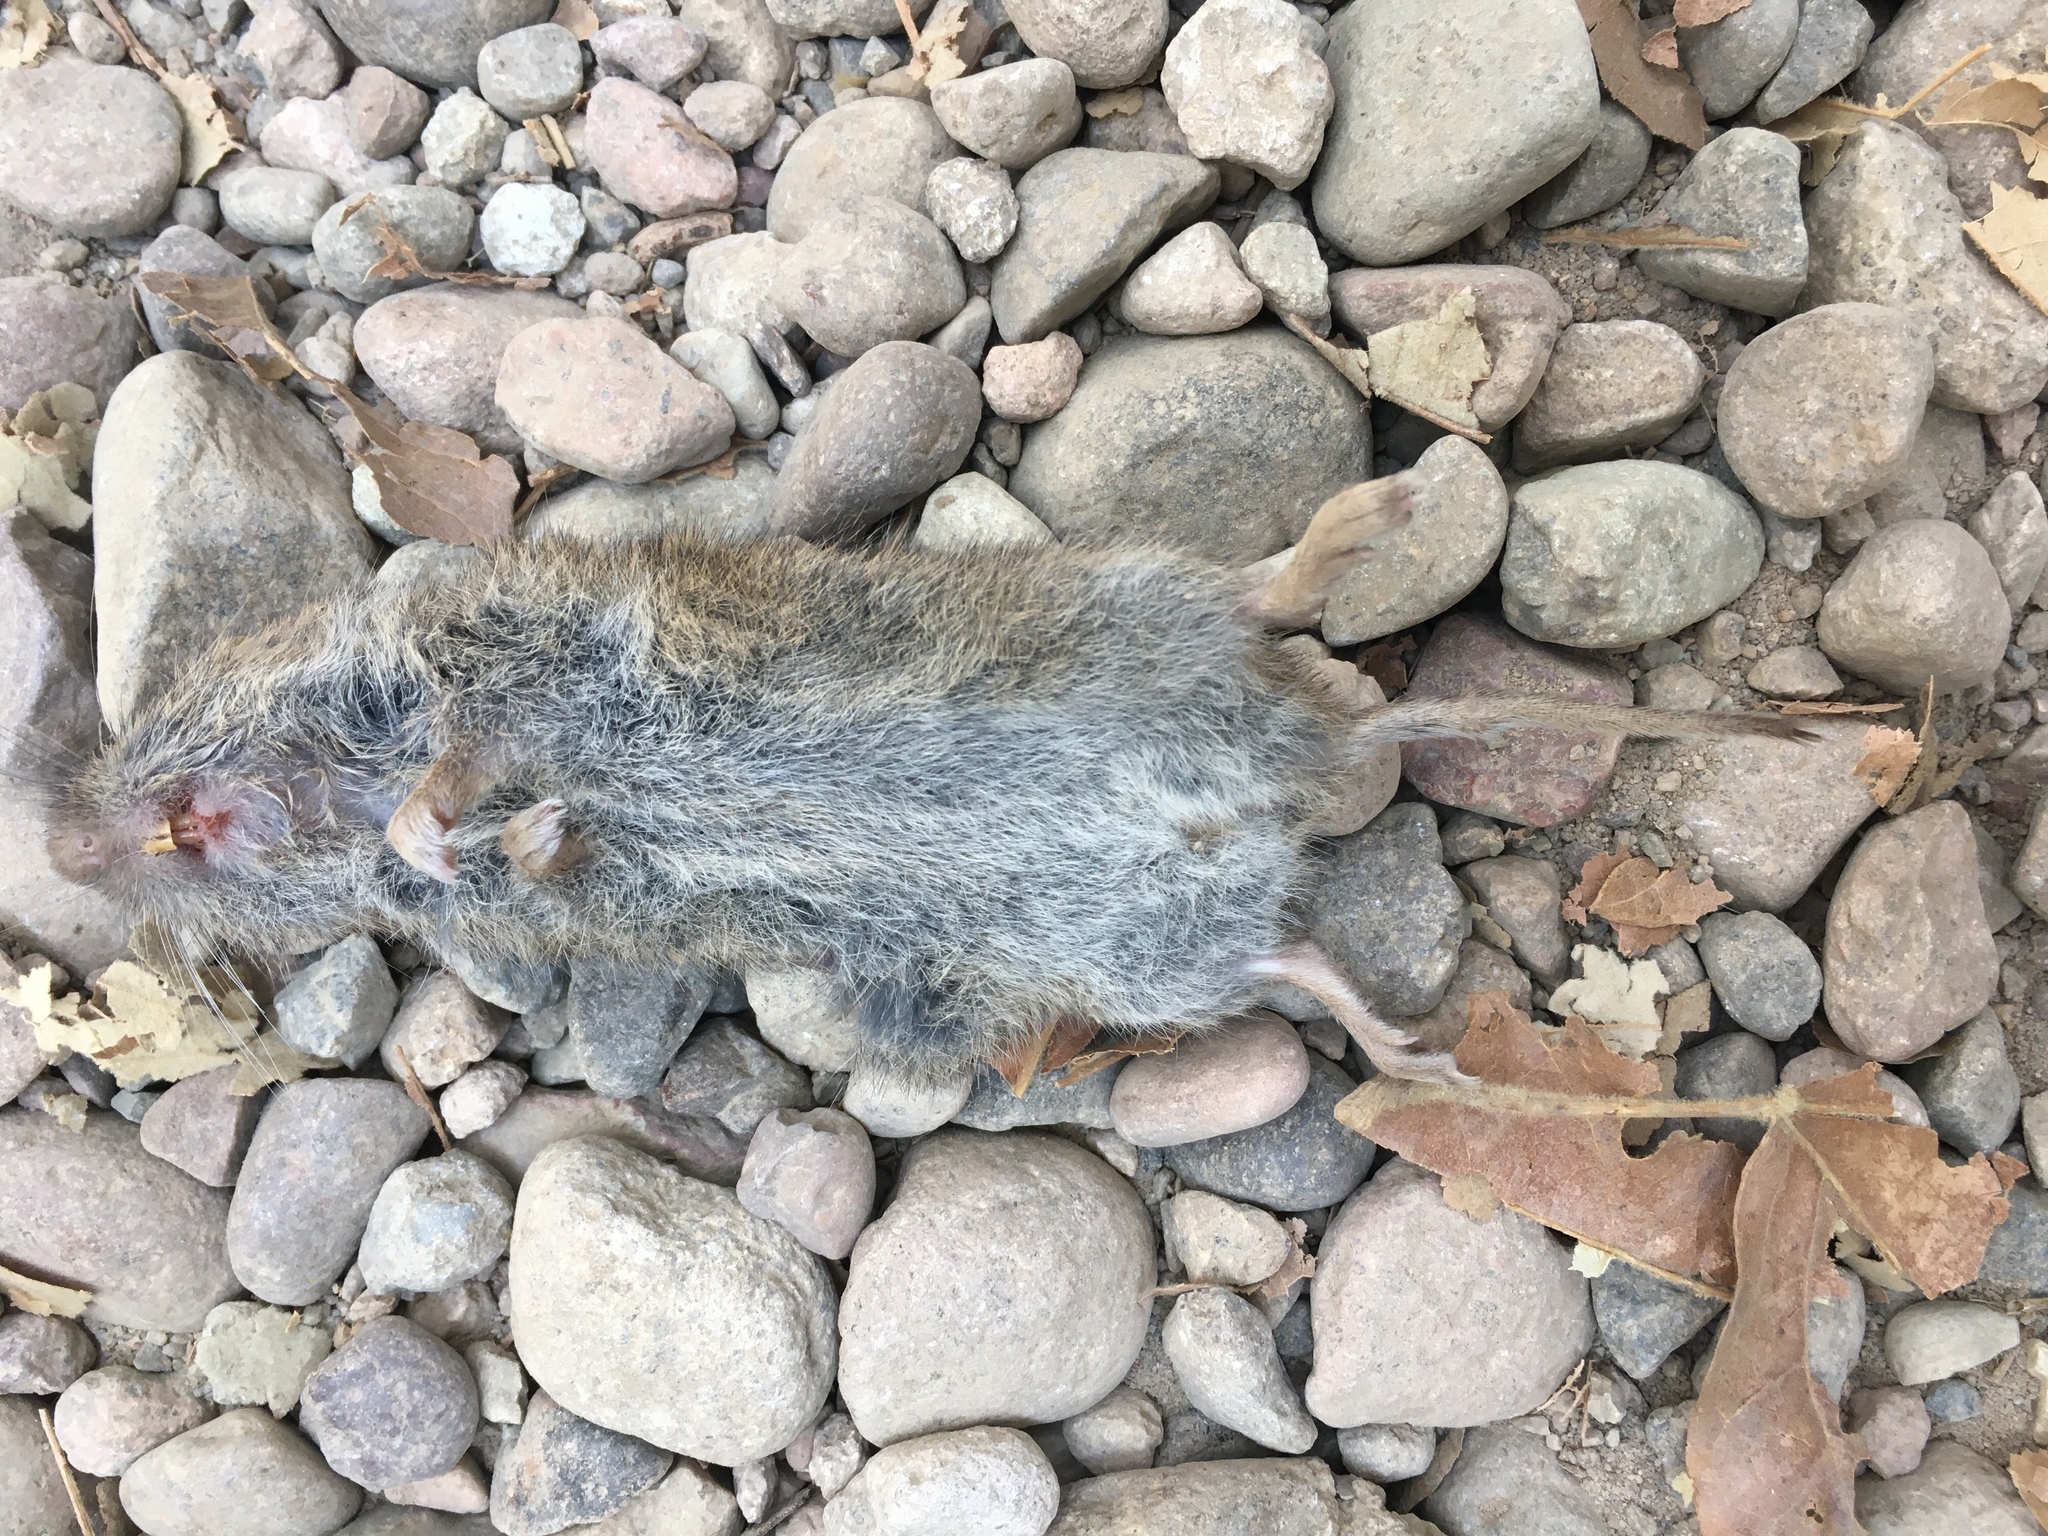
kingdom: Animalia
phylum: Chordata
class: Mammalia
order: Rodentia
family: Cricetidae
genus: Microtus
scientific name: Microtus californicus
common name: California vole
